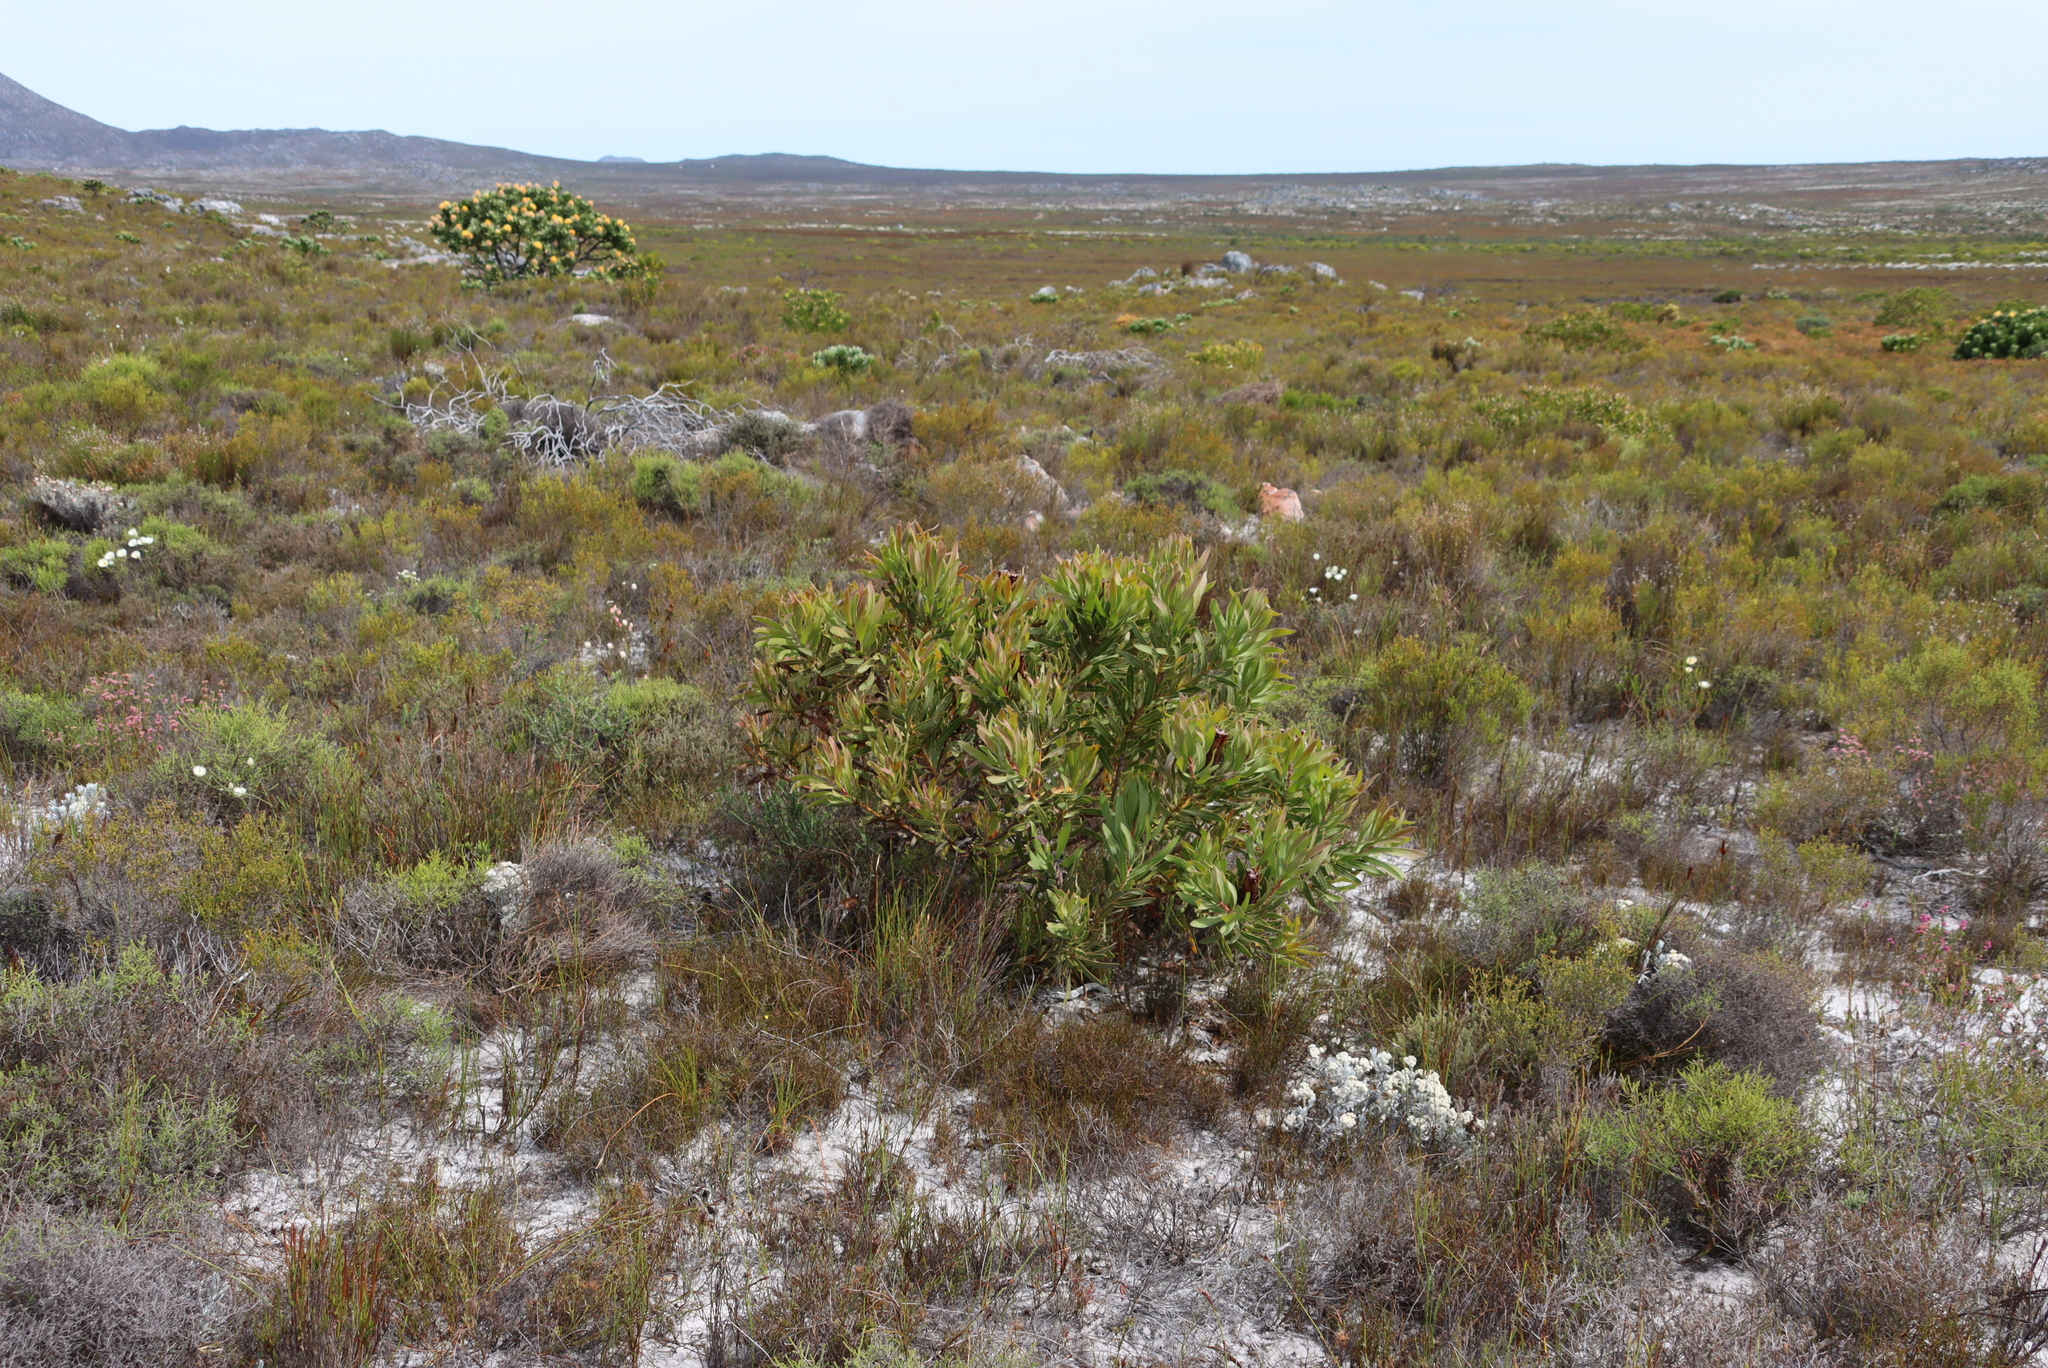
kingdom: Plantae
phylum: Tracheophyta
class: Magnoliopsida
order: Proteales
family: Proteaceae
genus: Protea
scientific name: Protea lepidocarpodendron
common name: Black-bearded protea
